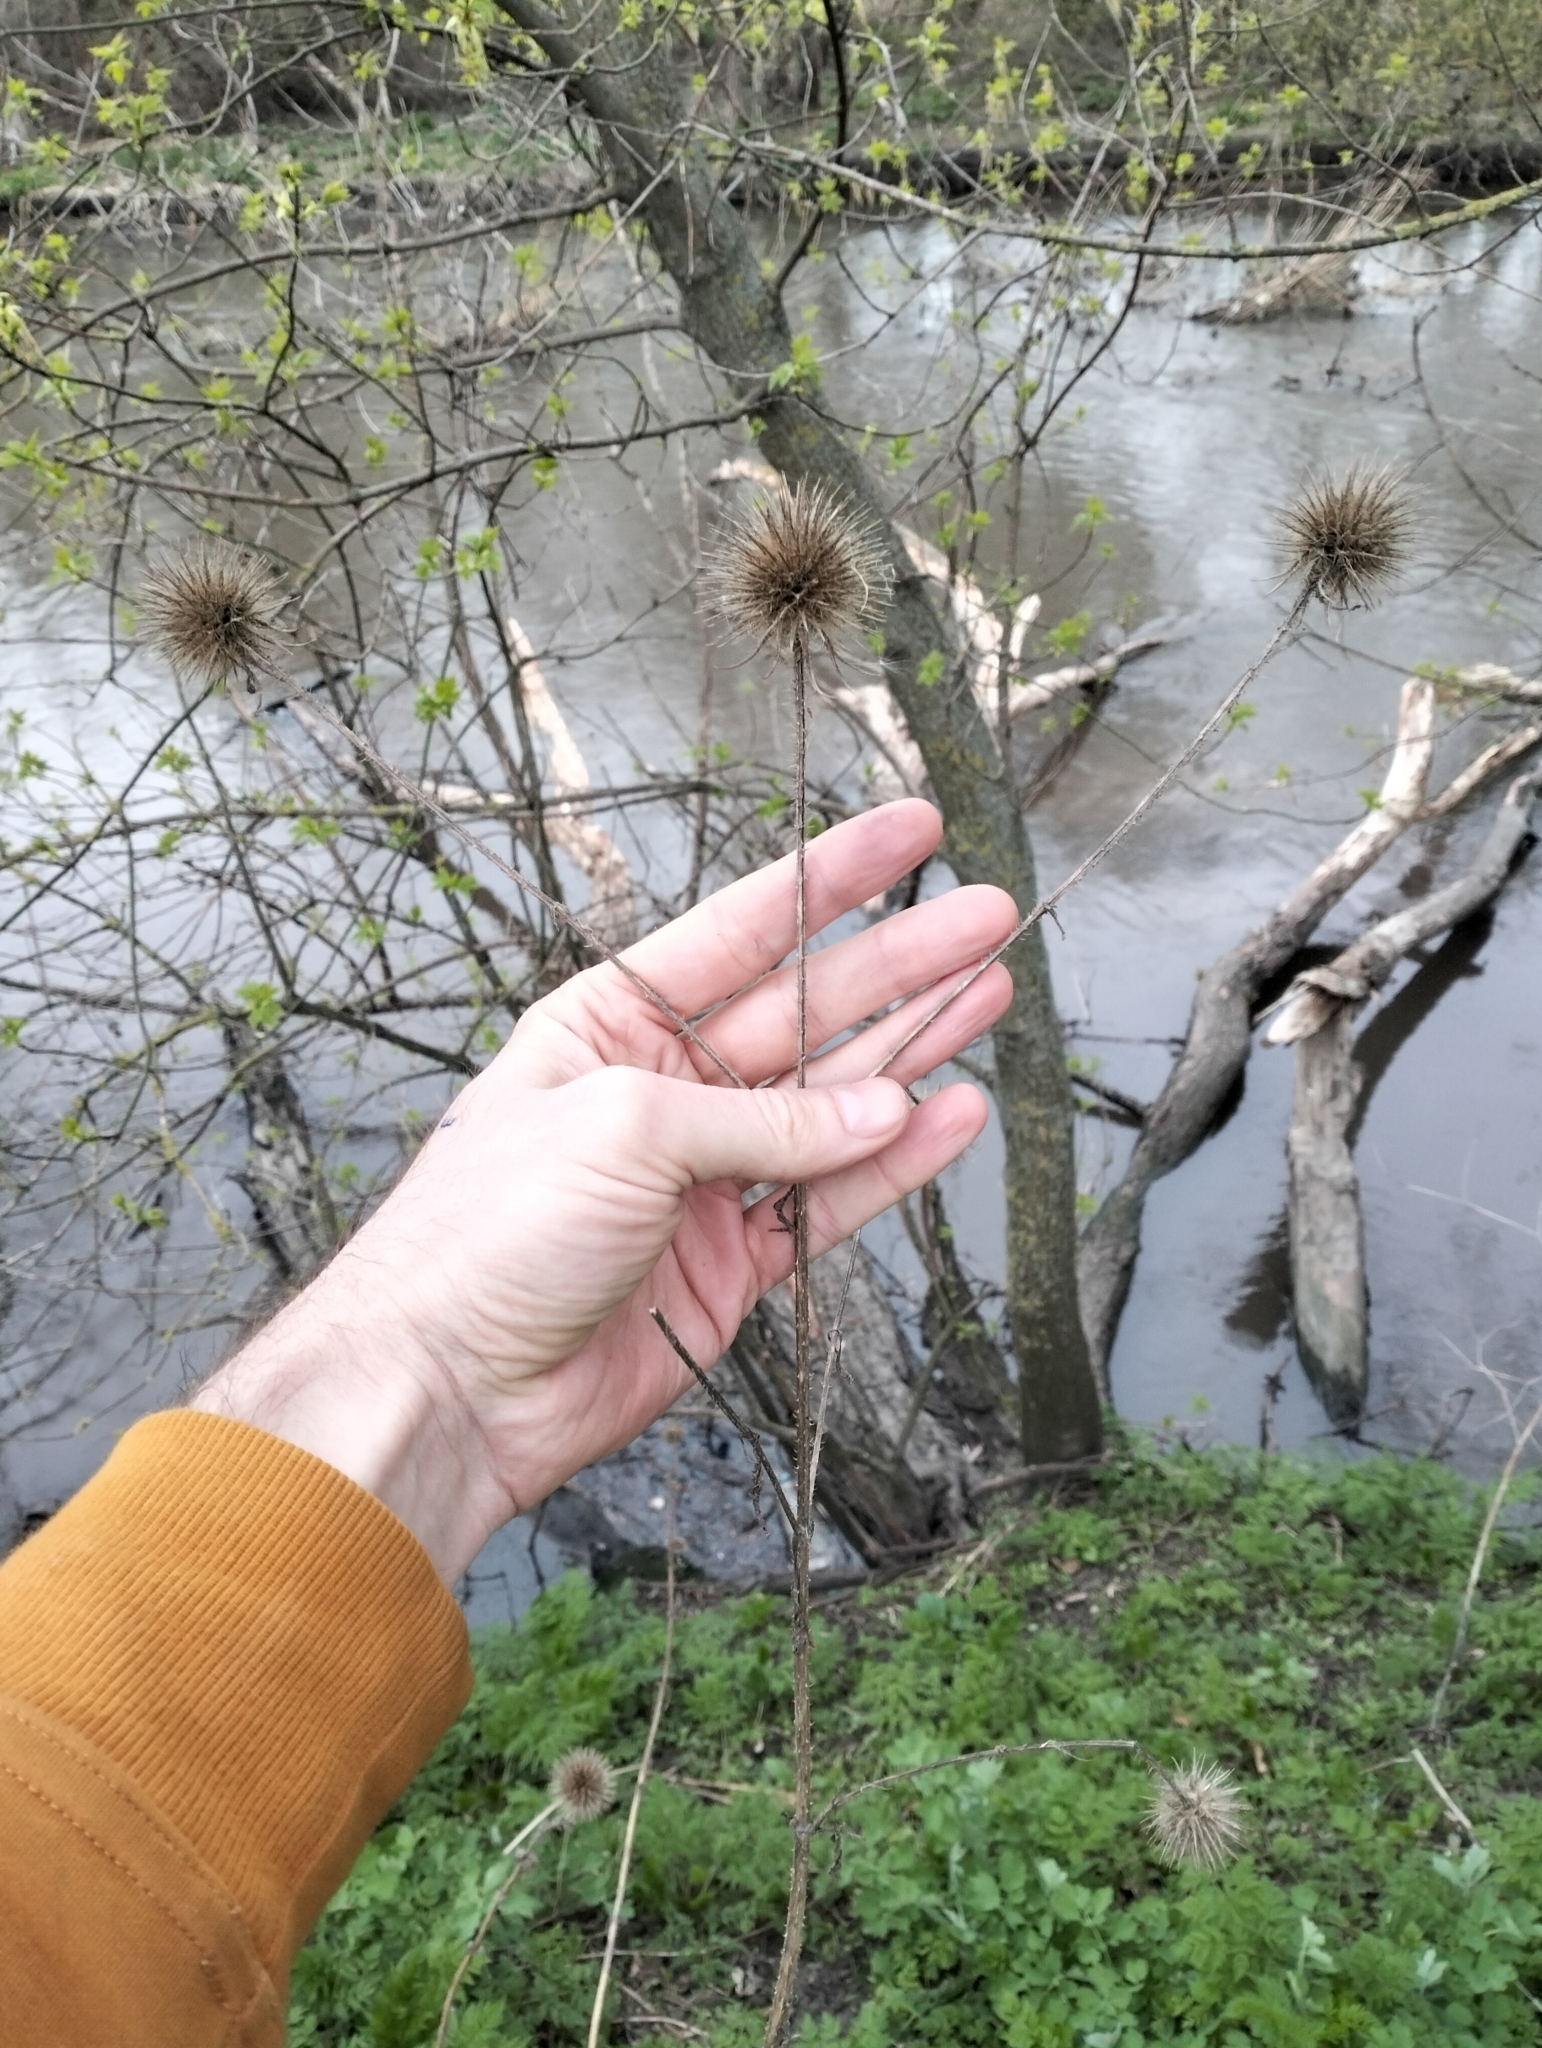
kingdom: Plantae
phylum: Tracheophyta
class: Magnoliopsida
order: Dipsacales
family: Caprifoliaceae
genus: Dipsacus
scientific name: Dipsacus strigosus
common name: Yellow-flowered teasel
